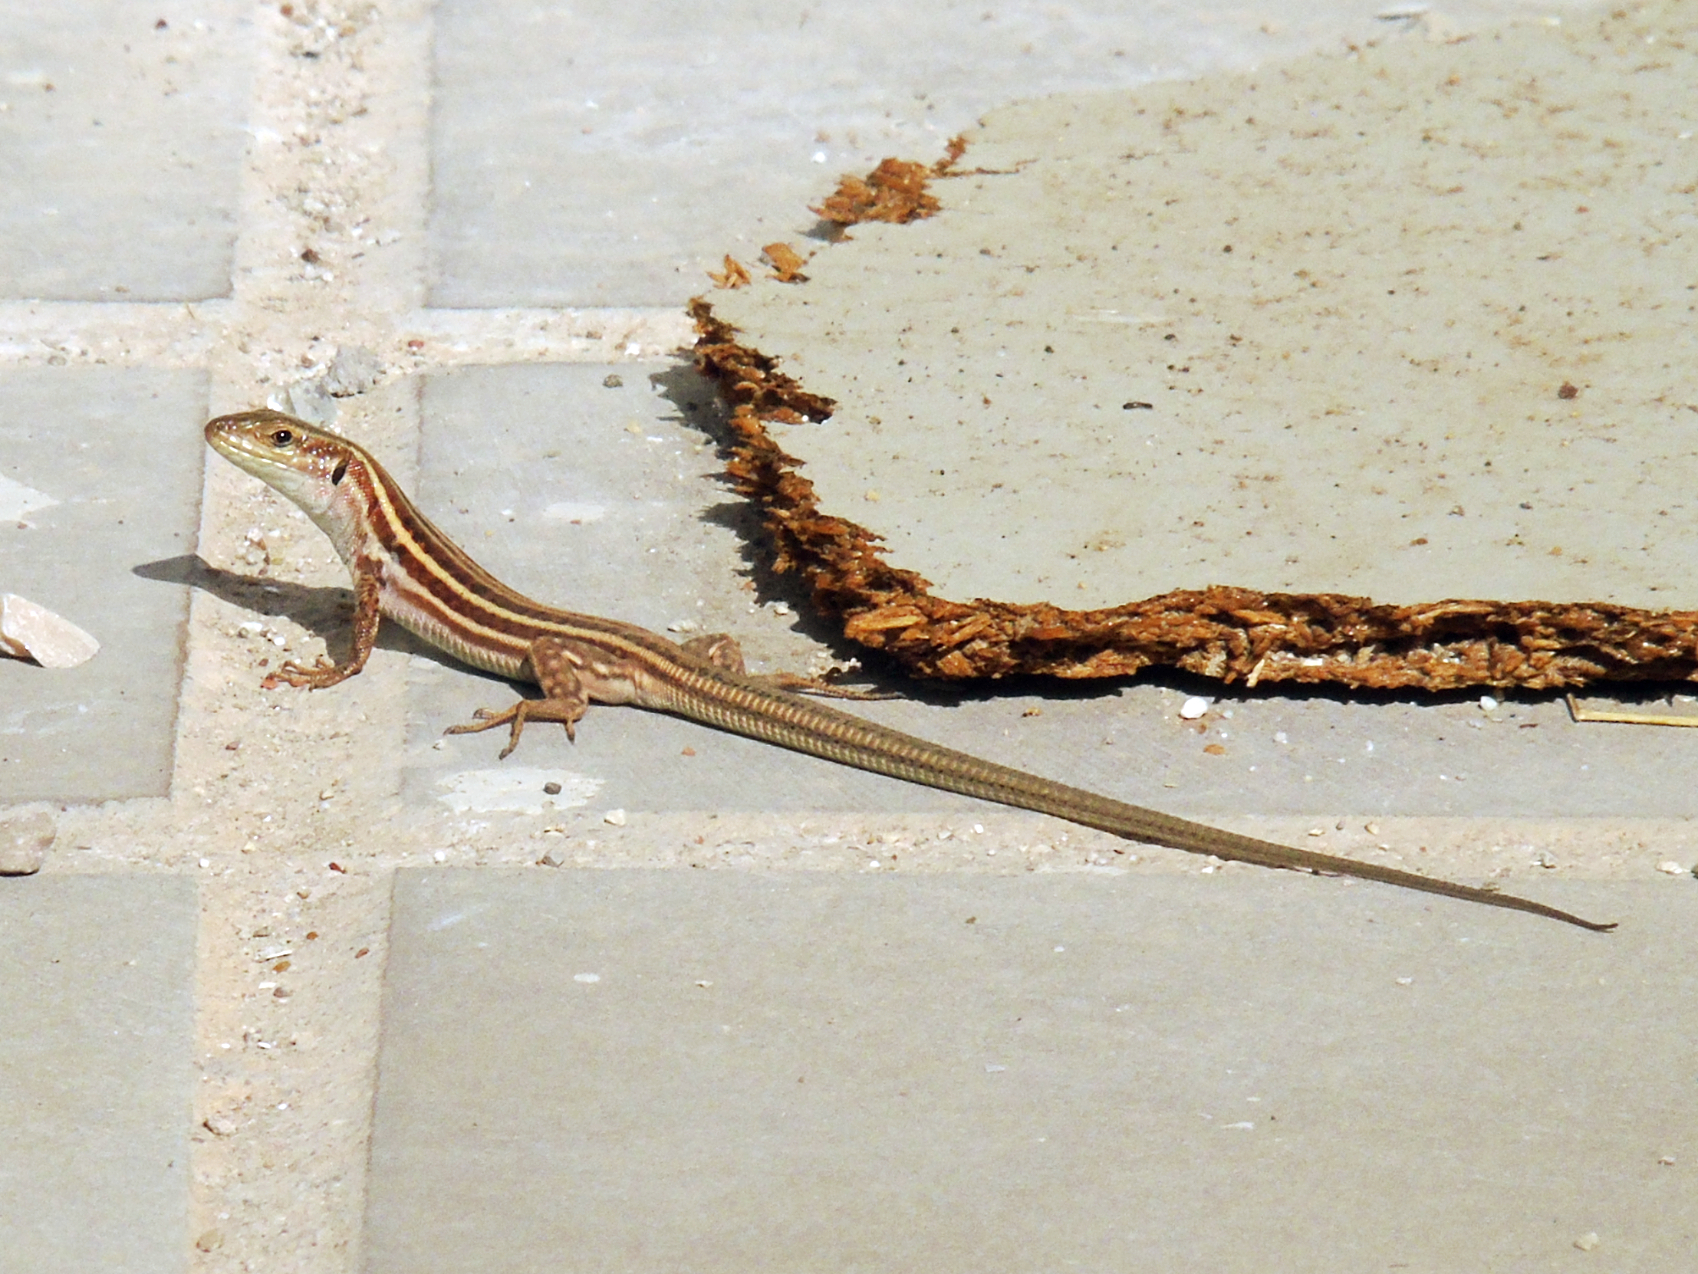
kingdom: Animalia
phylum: Chordata
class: Squamata
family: Lacertidae
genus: Podarcis
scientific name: Podarcis peloponnesiacus
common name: Peloponnese wall lizard
